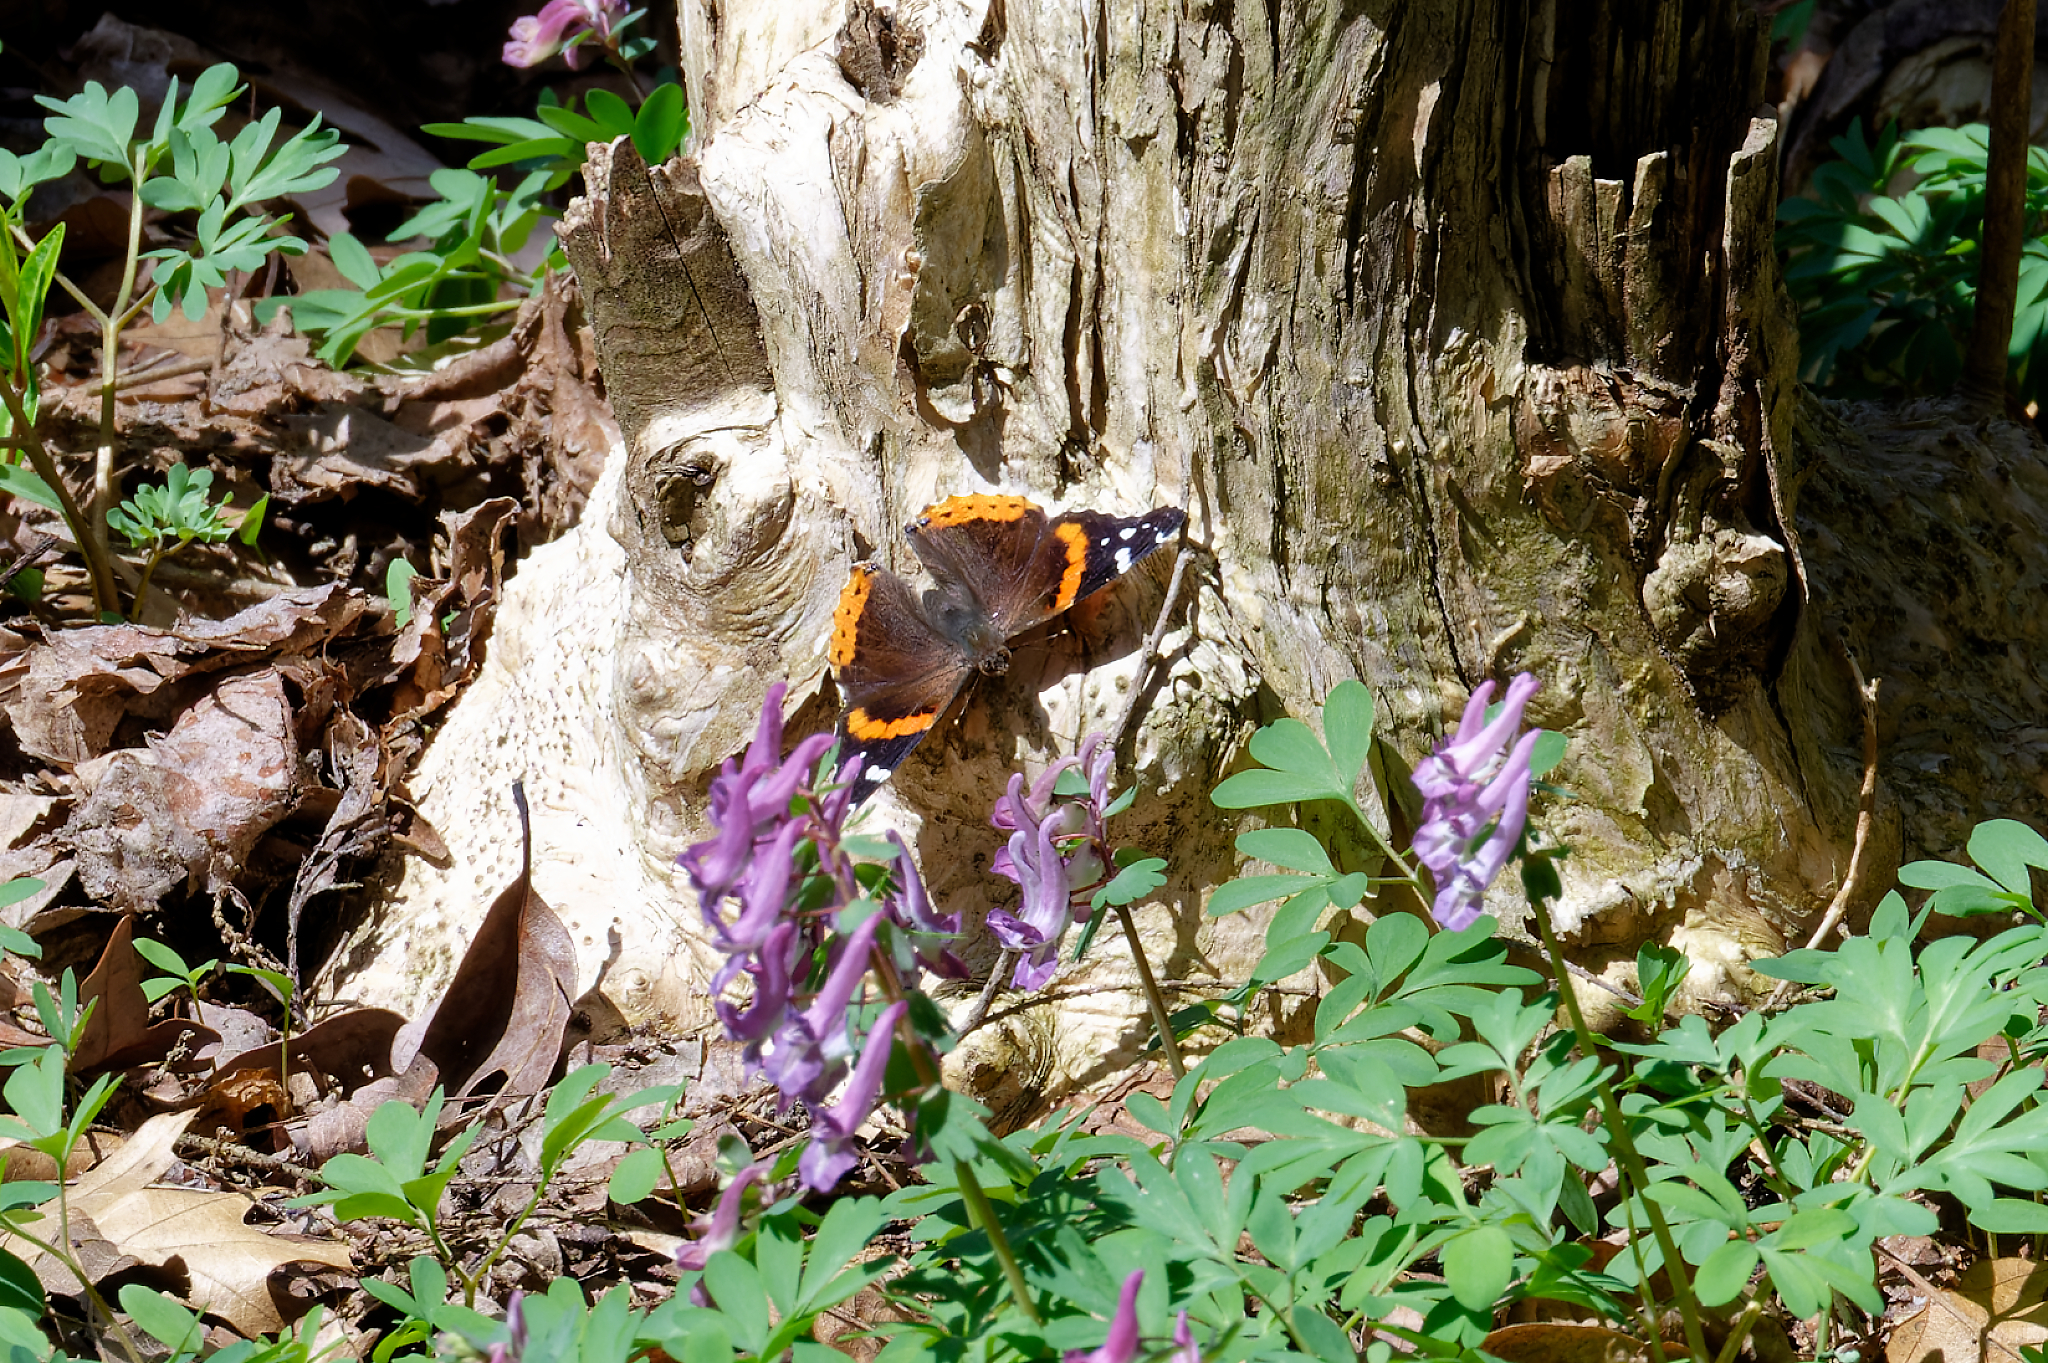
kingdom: Animalia
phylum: Arthropoda
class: Insecta
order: Lepidoptera
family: Nymphalidae
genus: Vanessa
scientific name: Vanessa atalanta
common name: Red admiral
